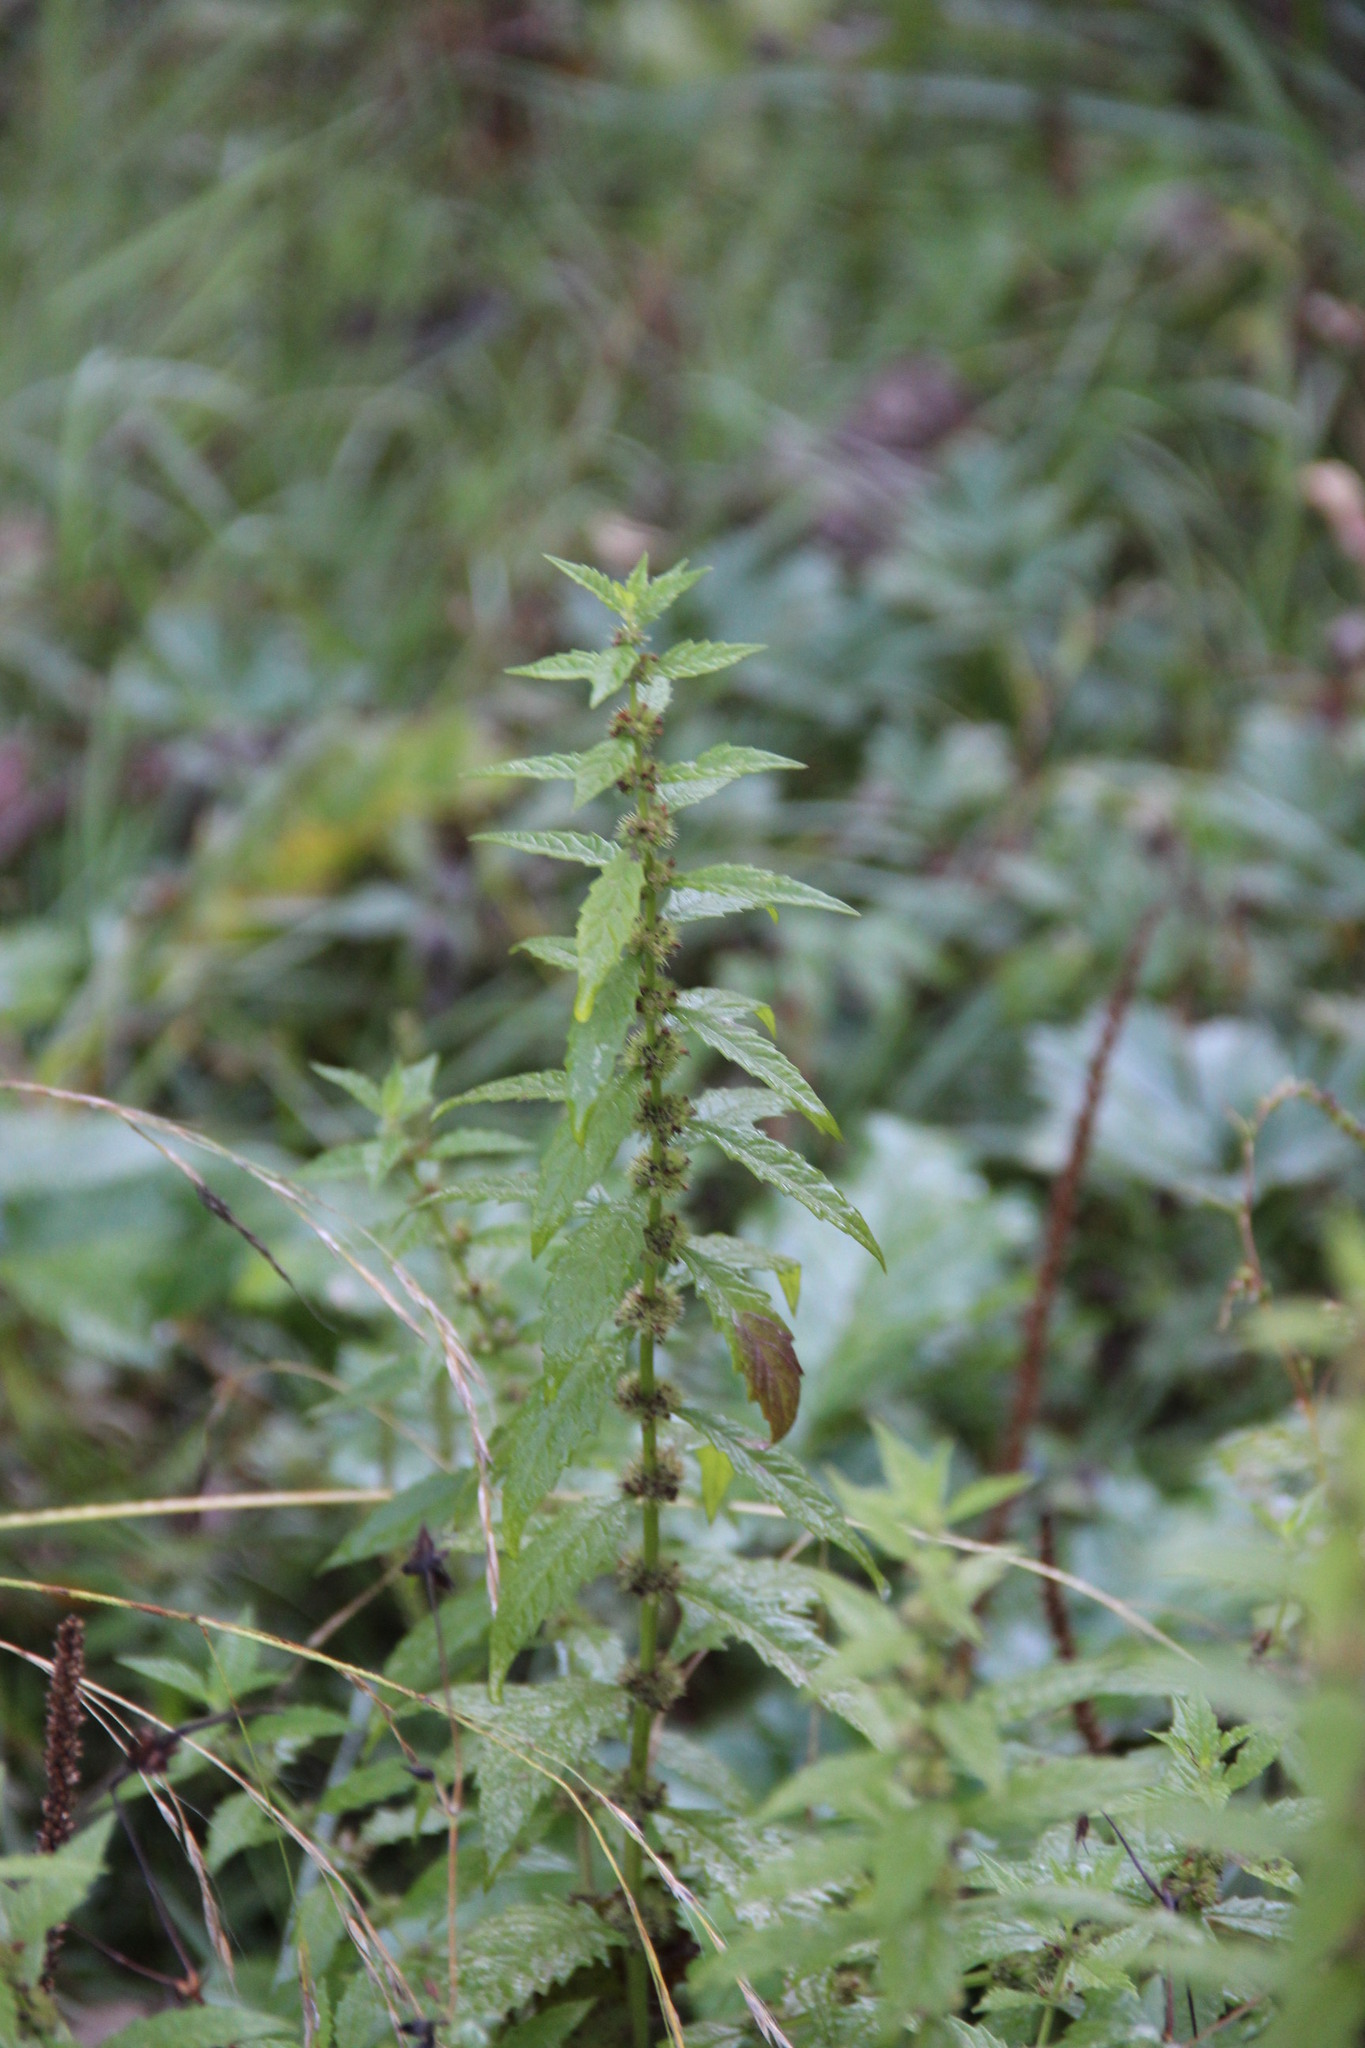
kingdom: Plantae
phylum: Tracheophyta
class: Magnoliopsida
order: Lamiales
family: Lamiaceae
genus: Lycopus
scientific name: Lycopus europaeus
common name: European bugleweed
